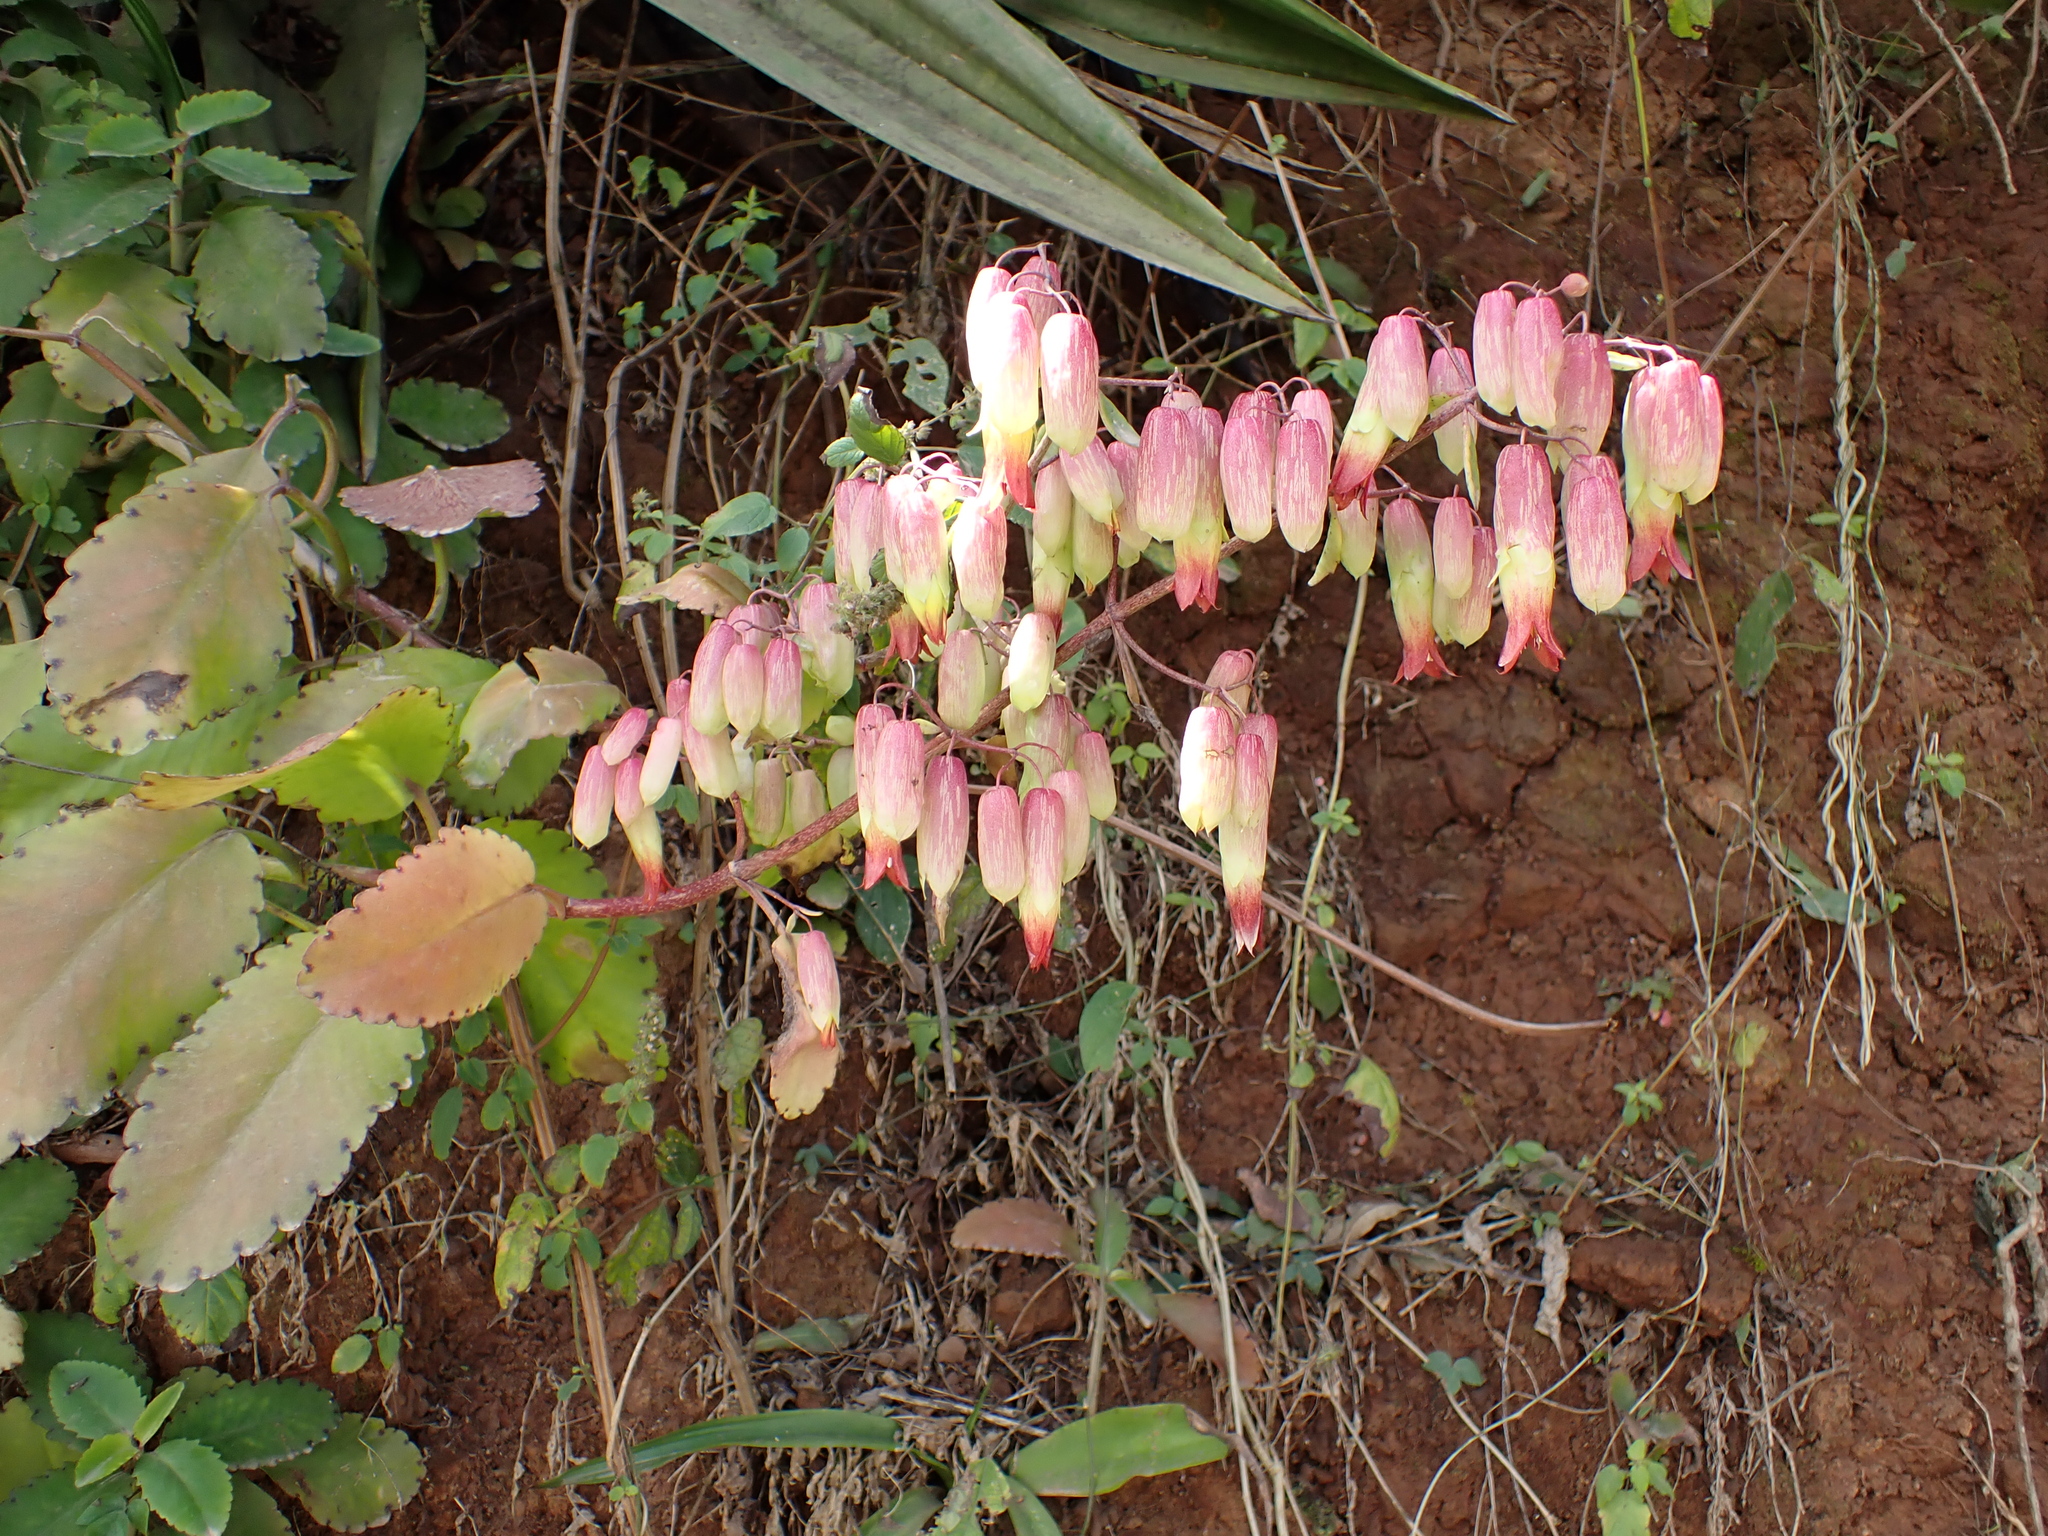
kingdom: Plantae
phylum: Tracheophyta
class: Magnoliopsida
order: Saxifragales
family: Crassulaceae
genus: Kalanchoe
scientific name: Kalanchoe pinnata
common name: Cathedral bells
